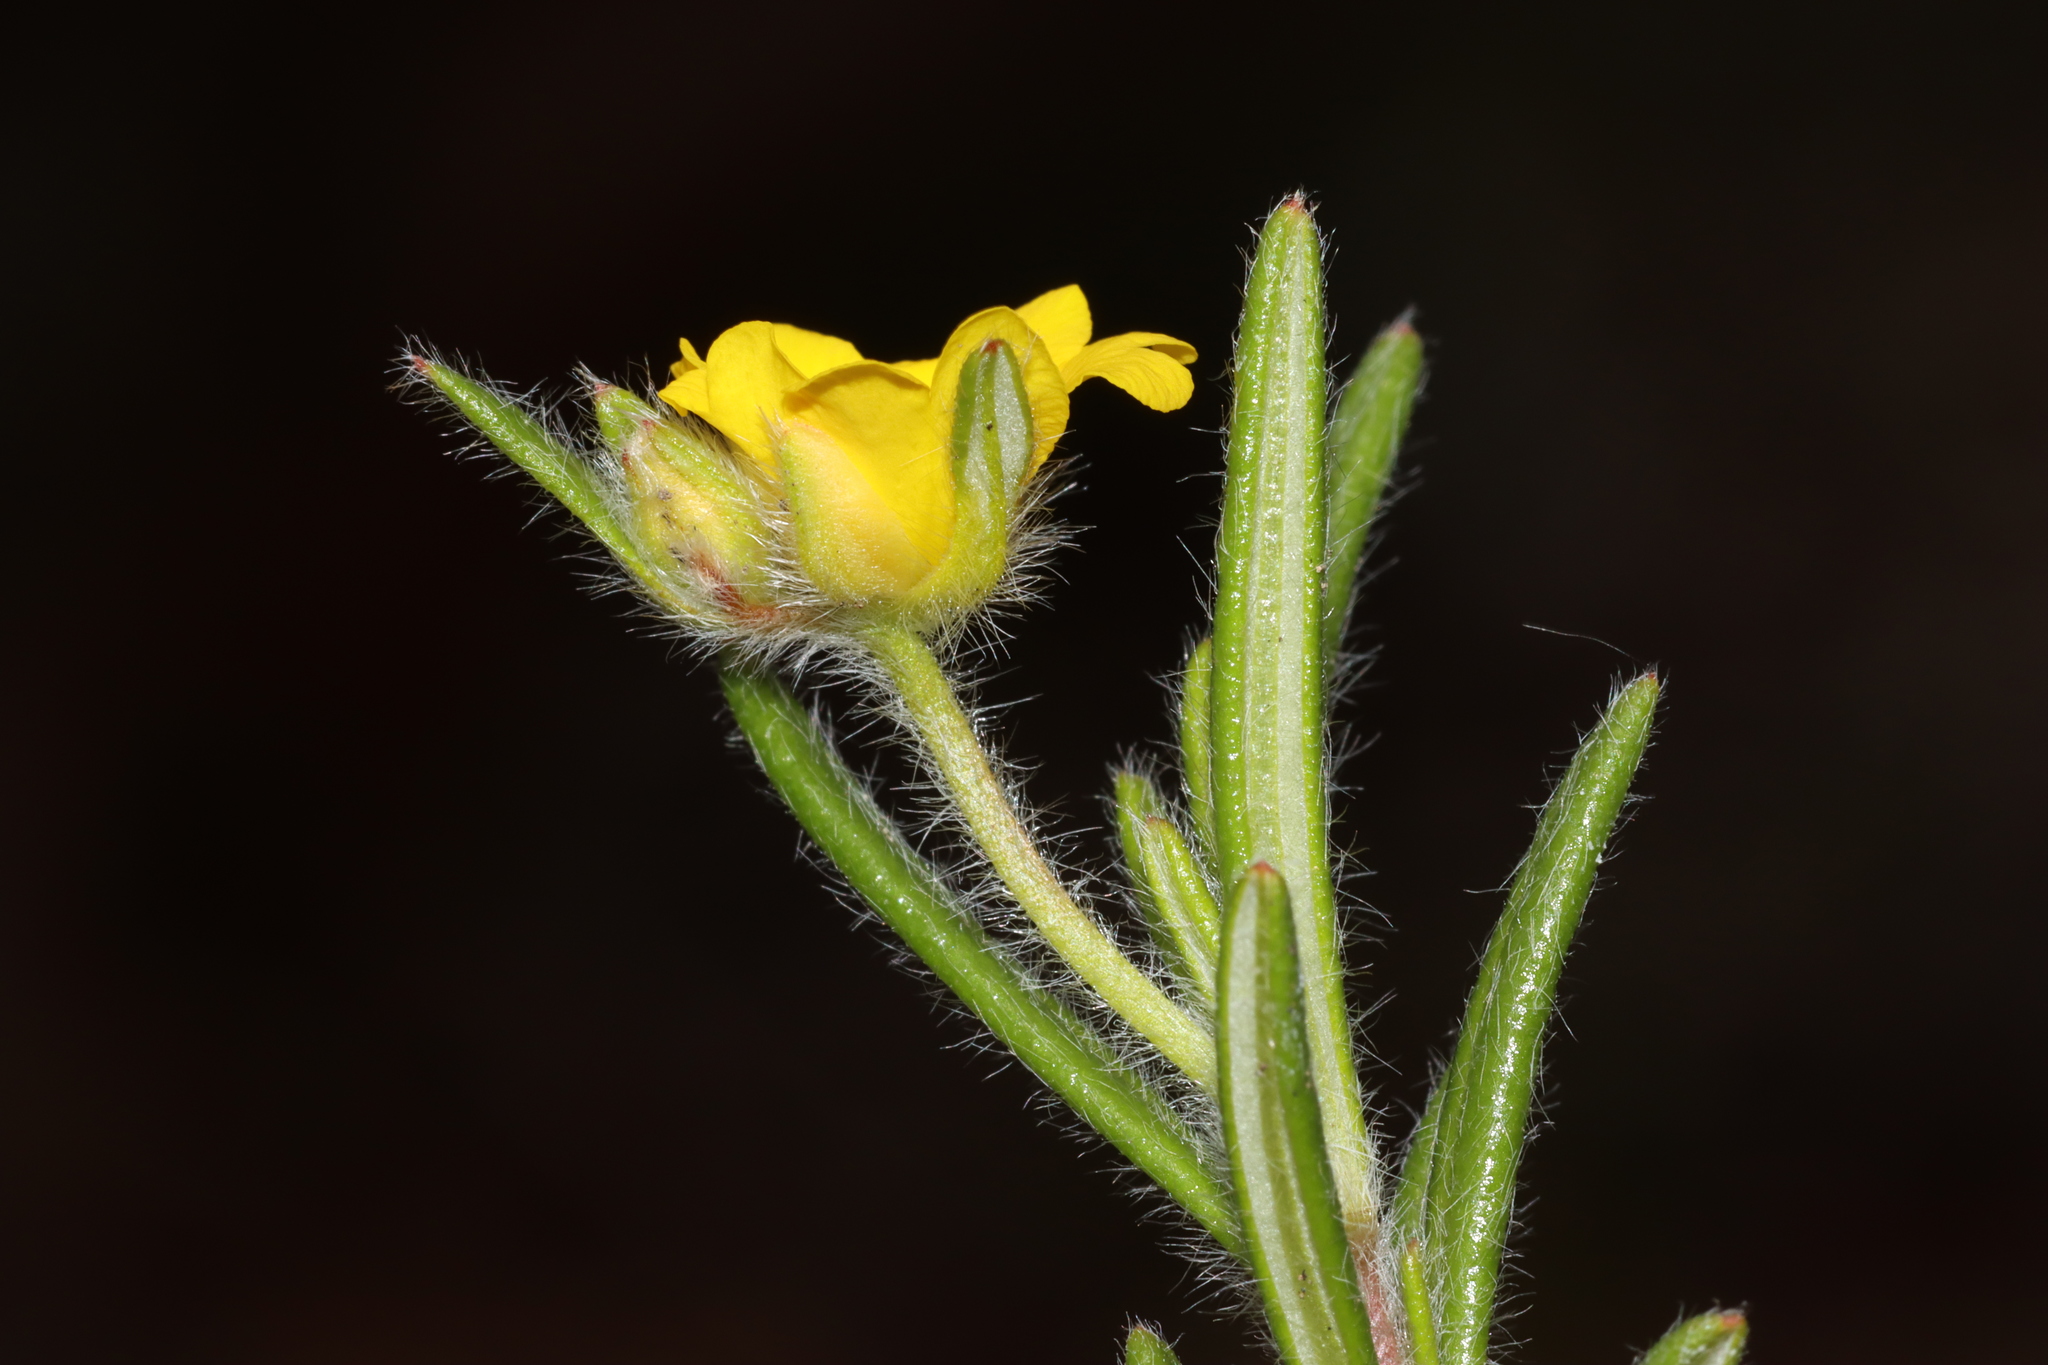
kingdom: Plantae
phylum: Tracheophyta
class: Magnoliopsida
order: Dilleniales
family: Dilleniaceae
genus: Hibbertia
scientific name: Hibbertia polystachya
